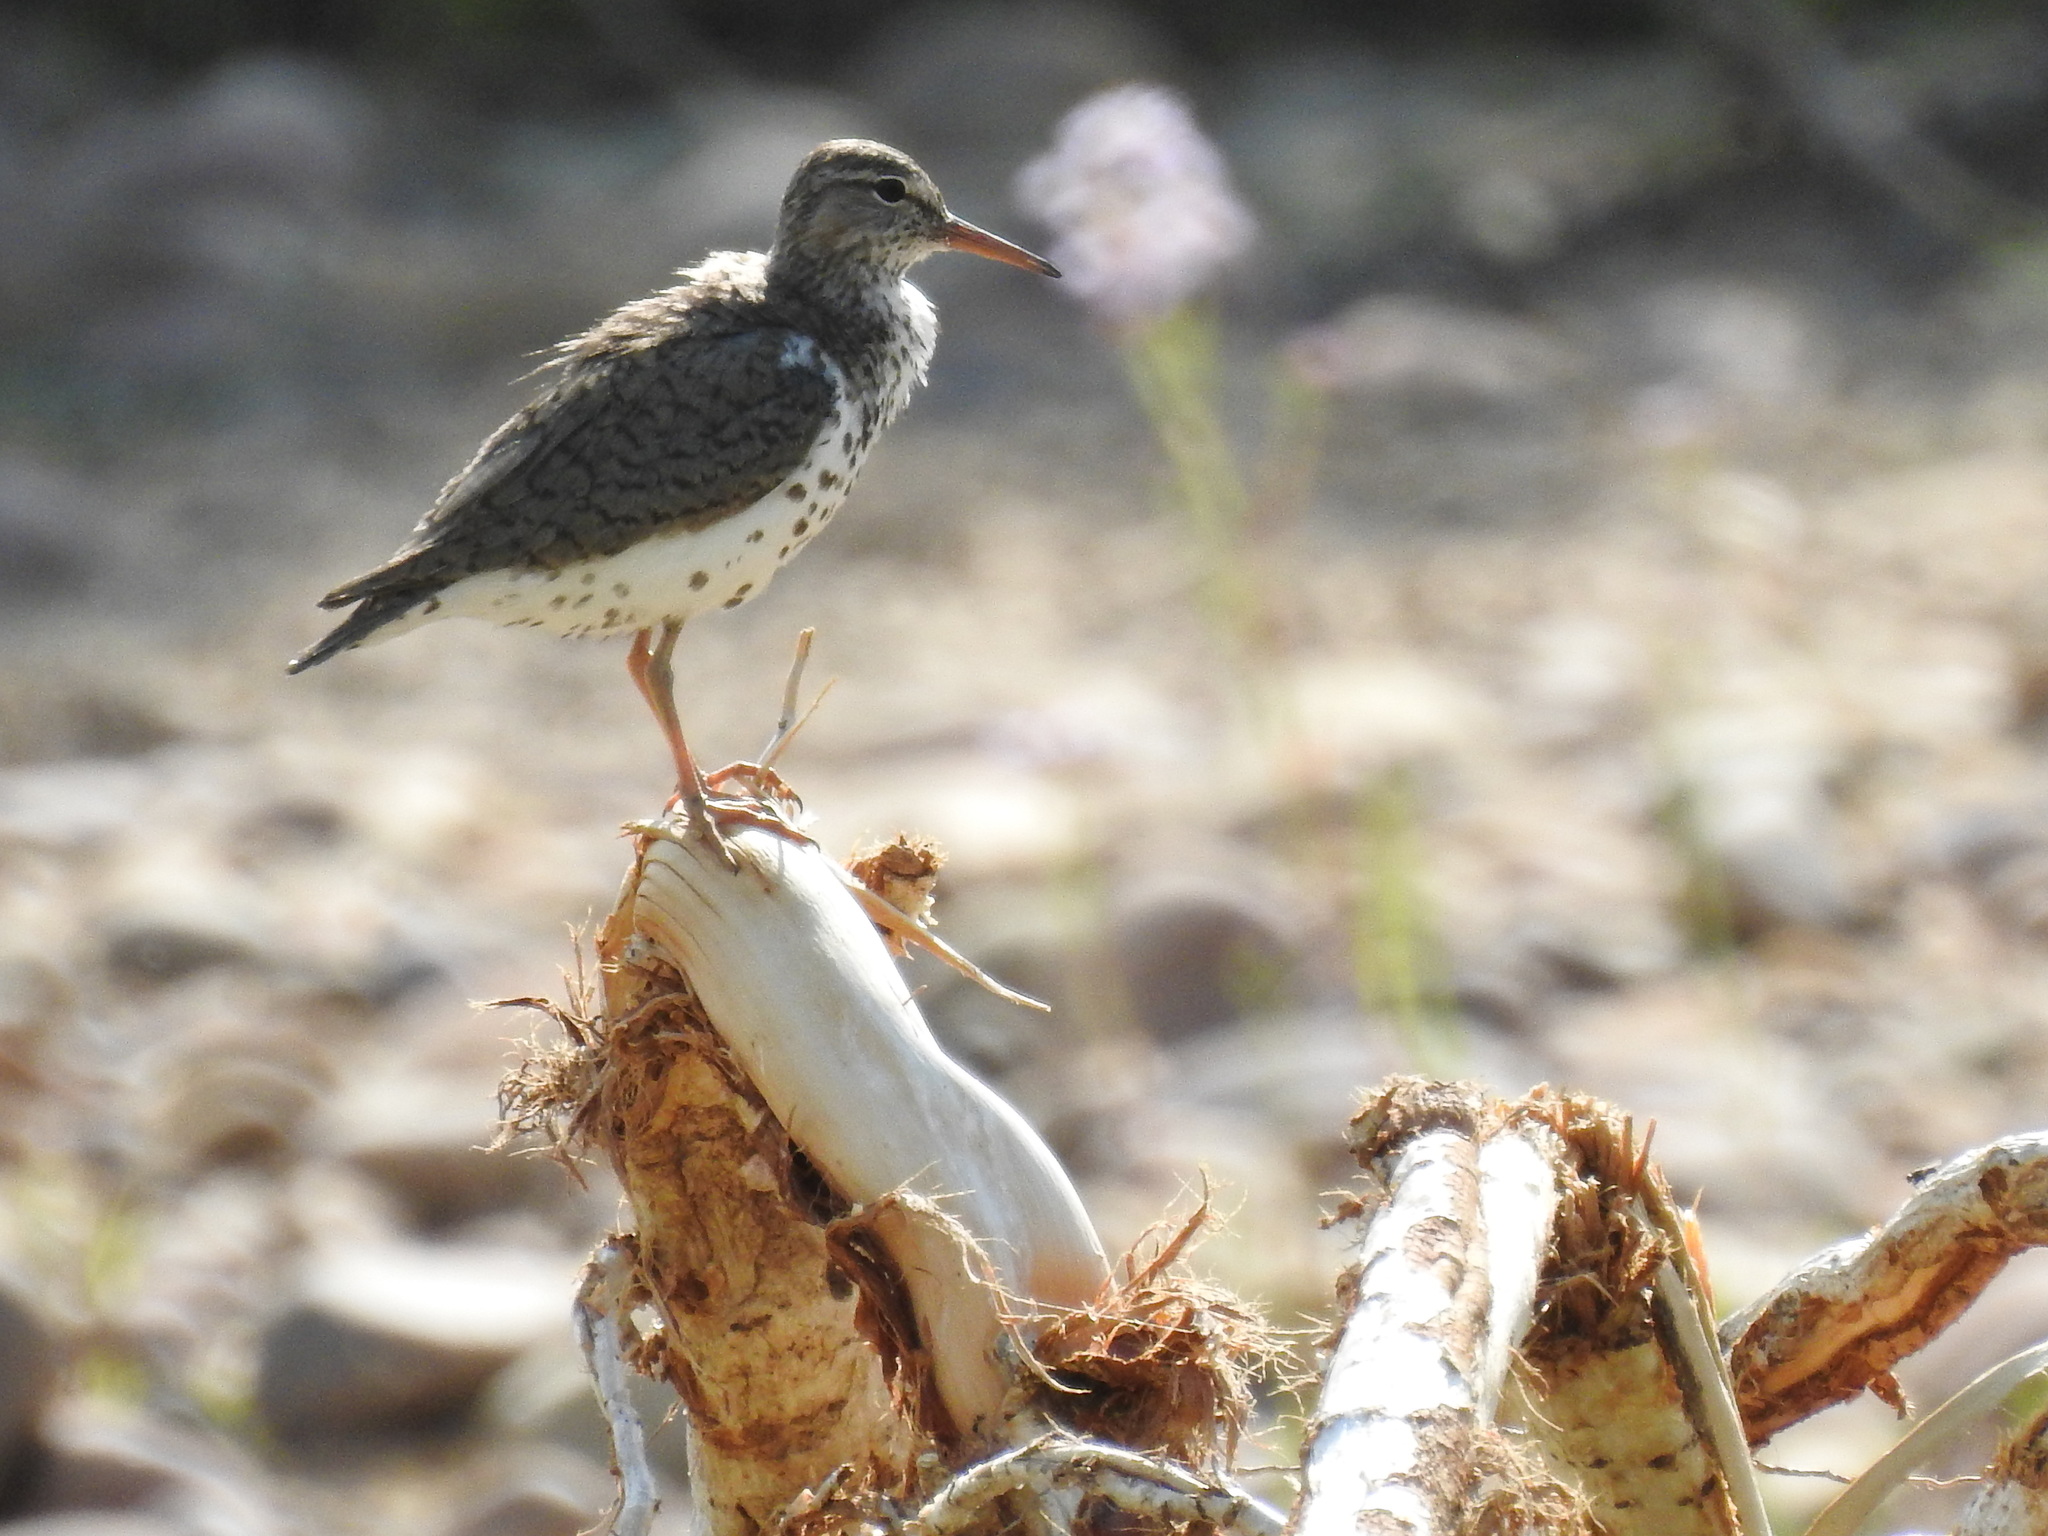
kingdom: Animalia
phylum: Chordata
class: Aves
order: Charadriiformes
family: Scolopacidae
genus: Actitis
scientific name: Actitis macularius
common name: Spotted sandpiper
